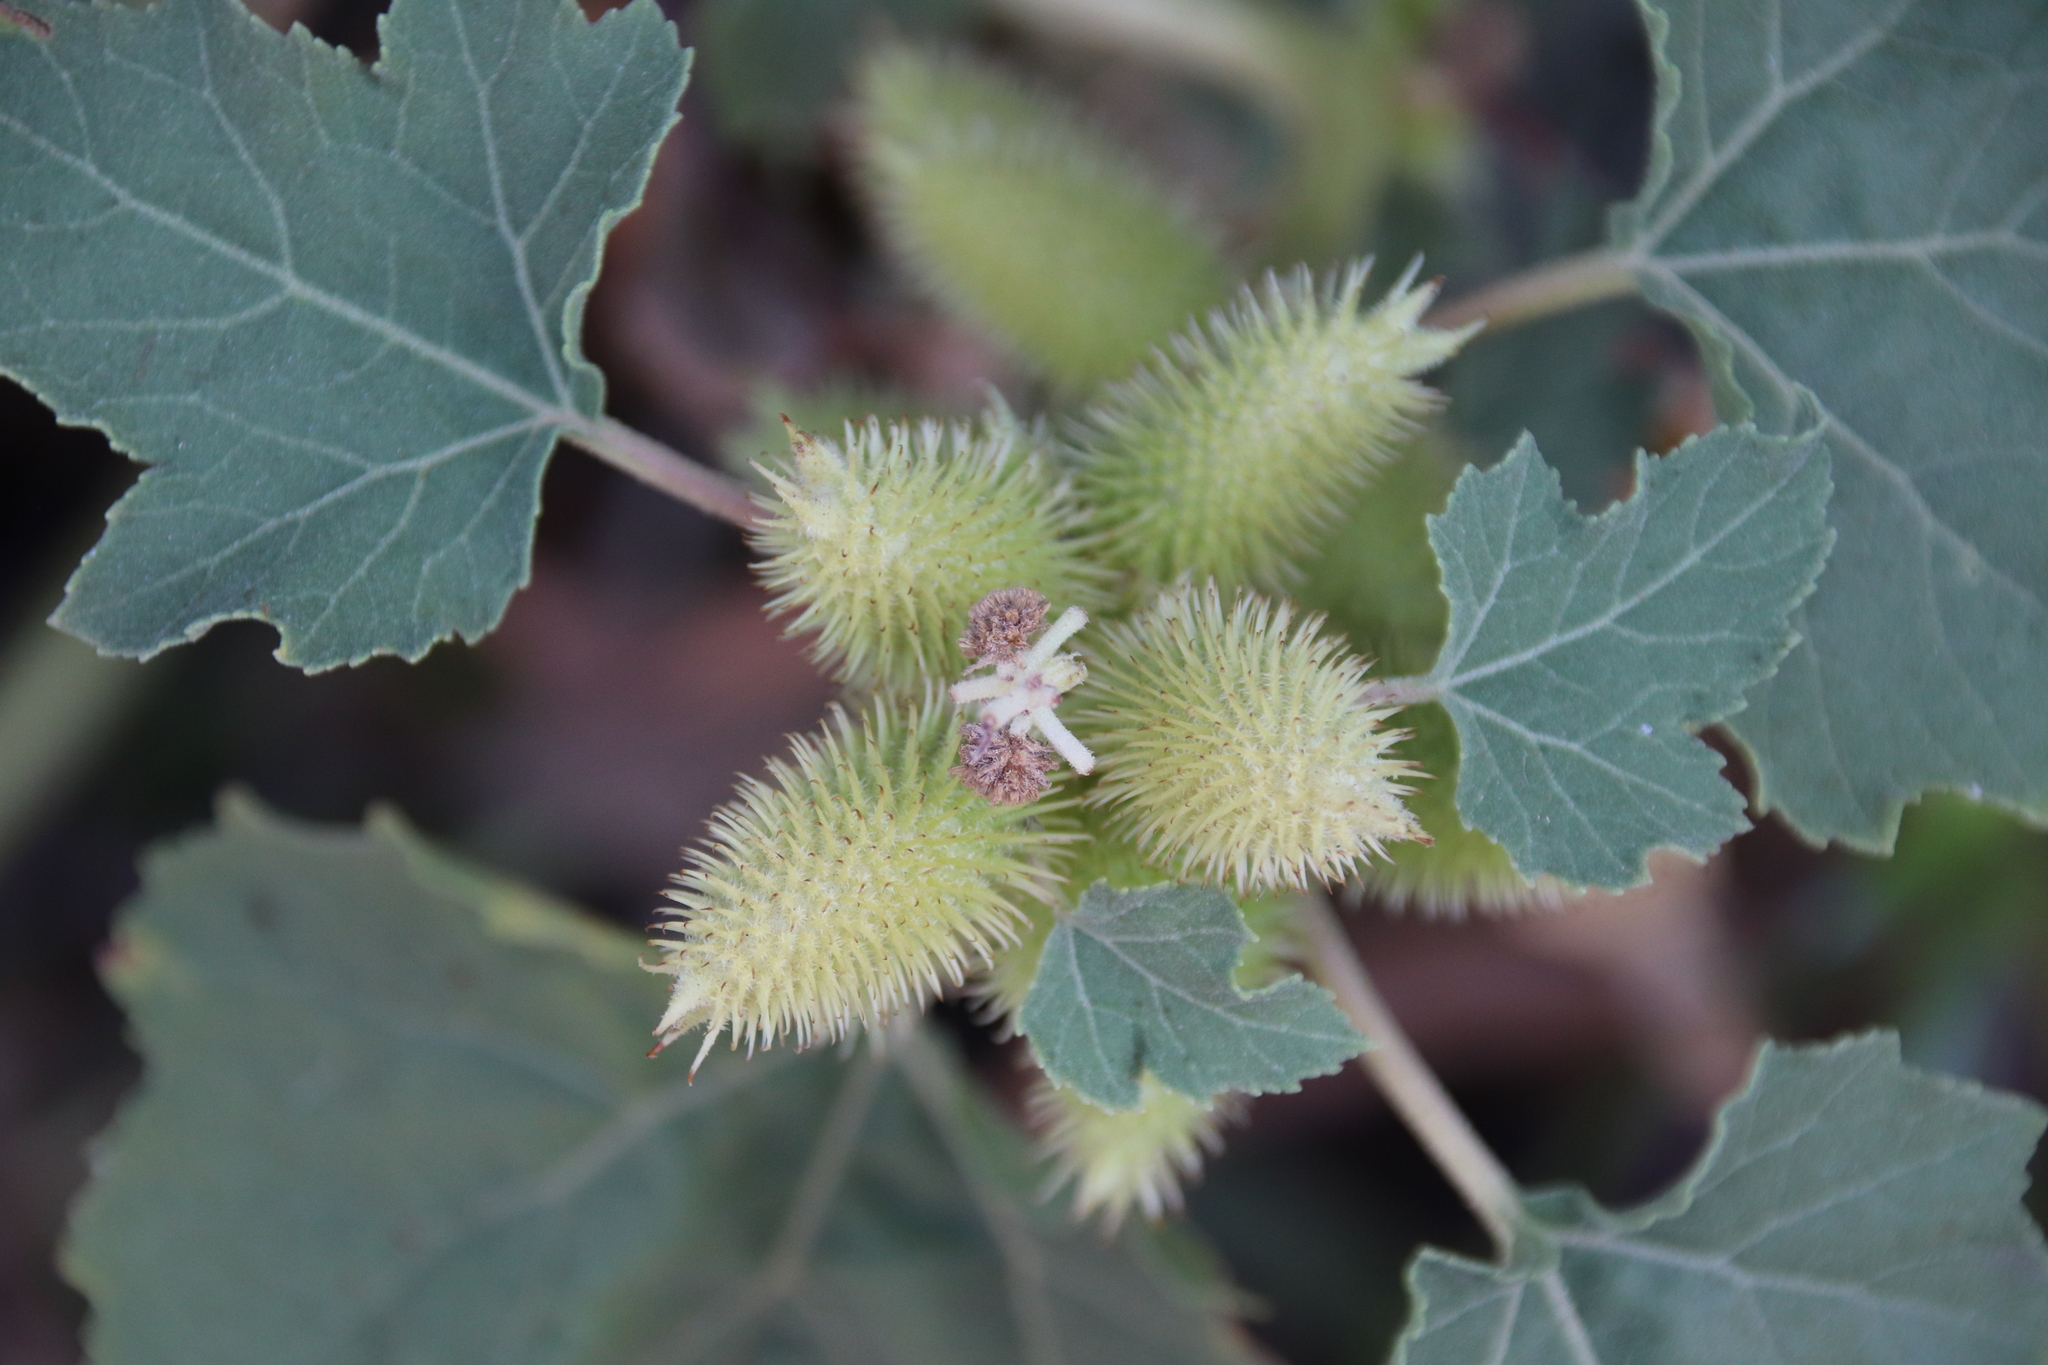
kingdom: Plantae
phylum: Tracheophyta
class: Magnoliopsida
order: Asterales
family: Asteraceae
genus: Xanthium
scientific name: Xanthium strumarium
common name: Rough cocklebur
